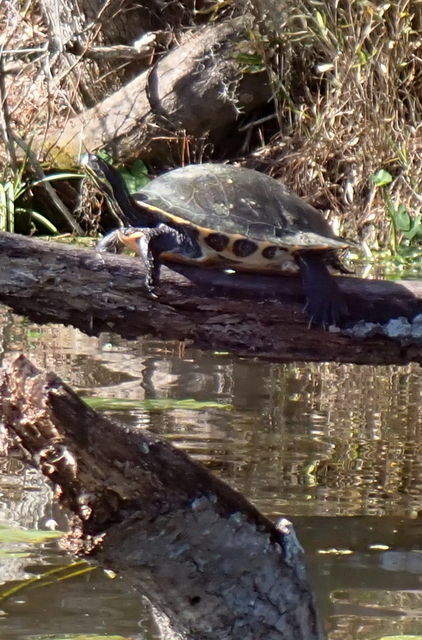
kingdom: Animalia
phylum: Chordata
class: Testudines
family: Emydidae
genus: Pseudemys
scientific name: Pseudemys concinna
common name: Eastern river cooter
